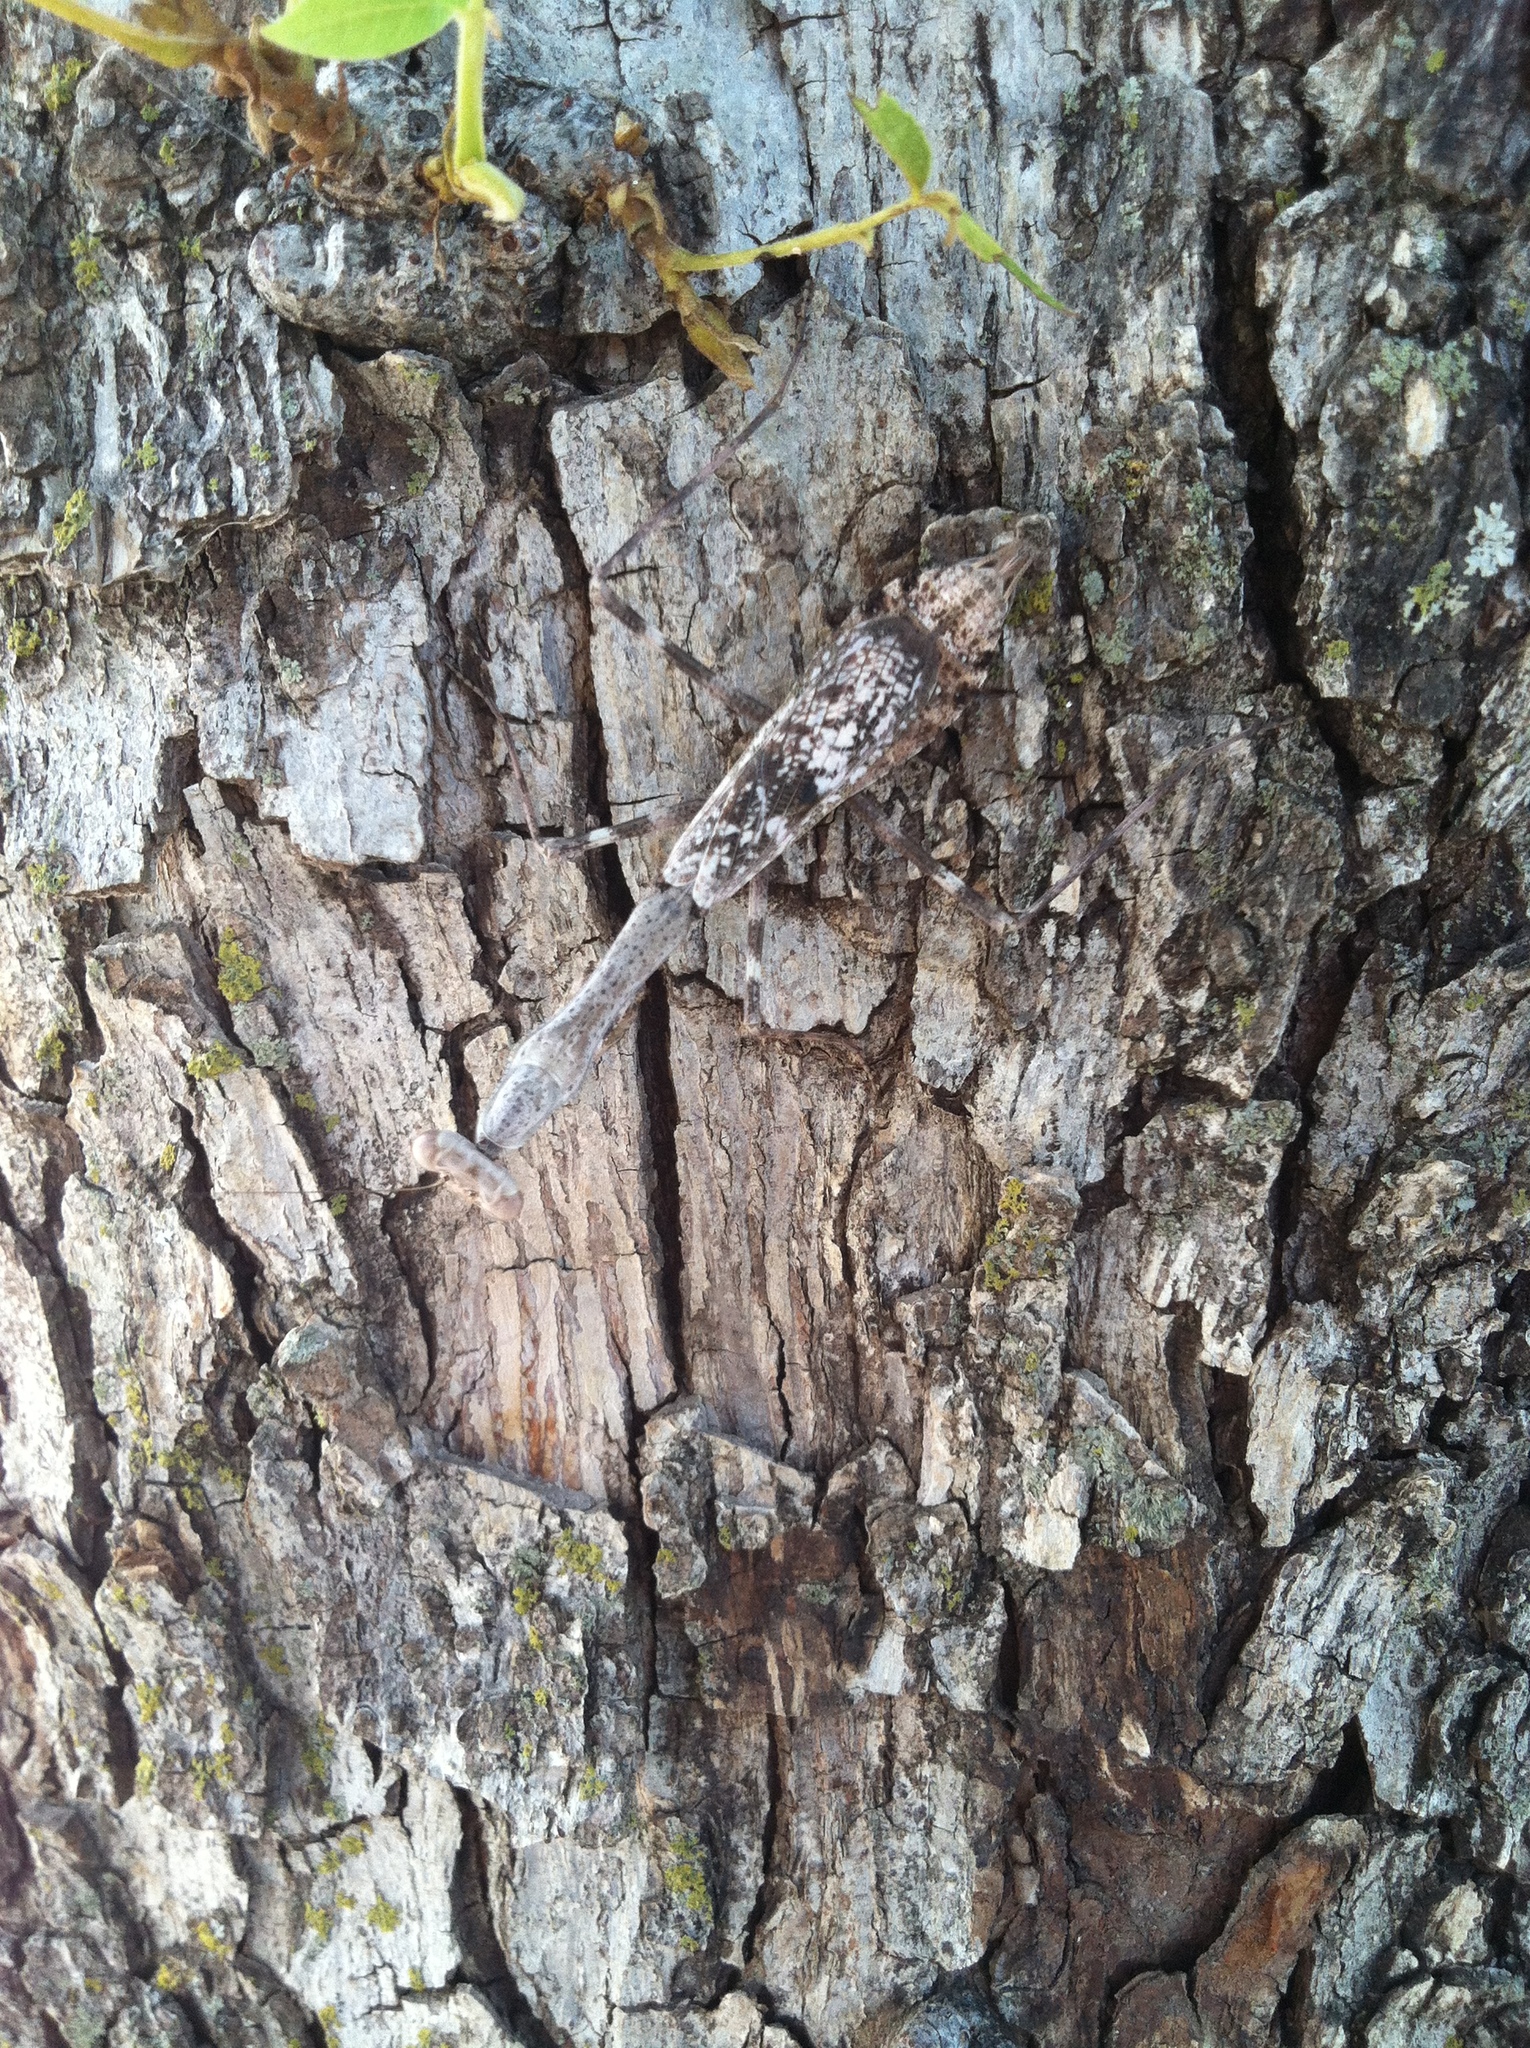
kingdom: Animalia
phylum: Arthropoda
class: Insecta
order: Mantodea
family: Mantidae
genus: Stagmomantis
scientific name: Stagmomantis carolina
